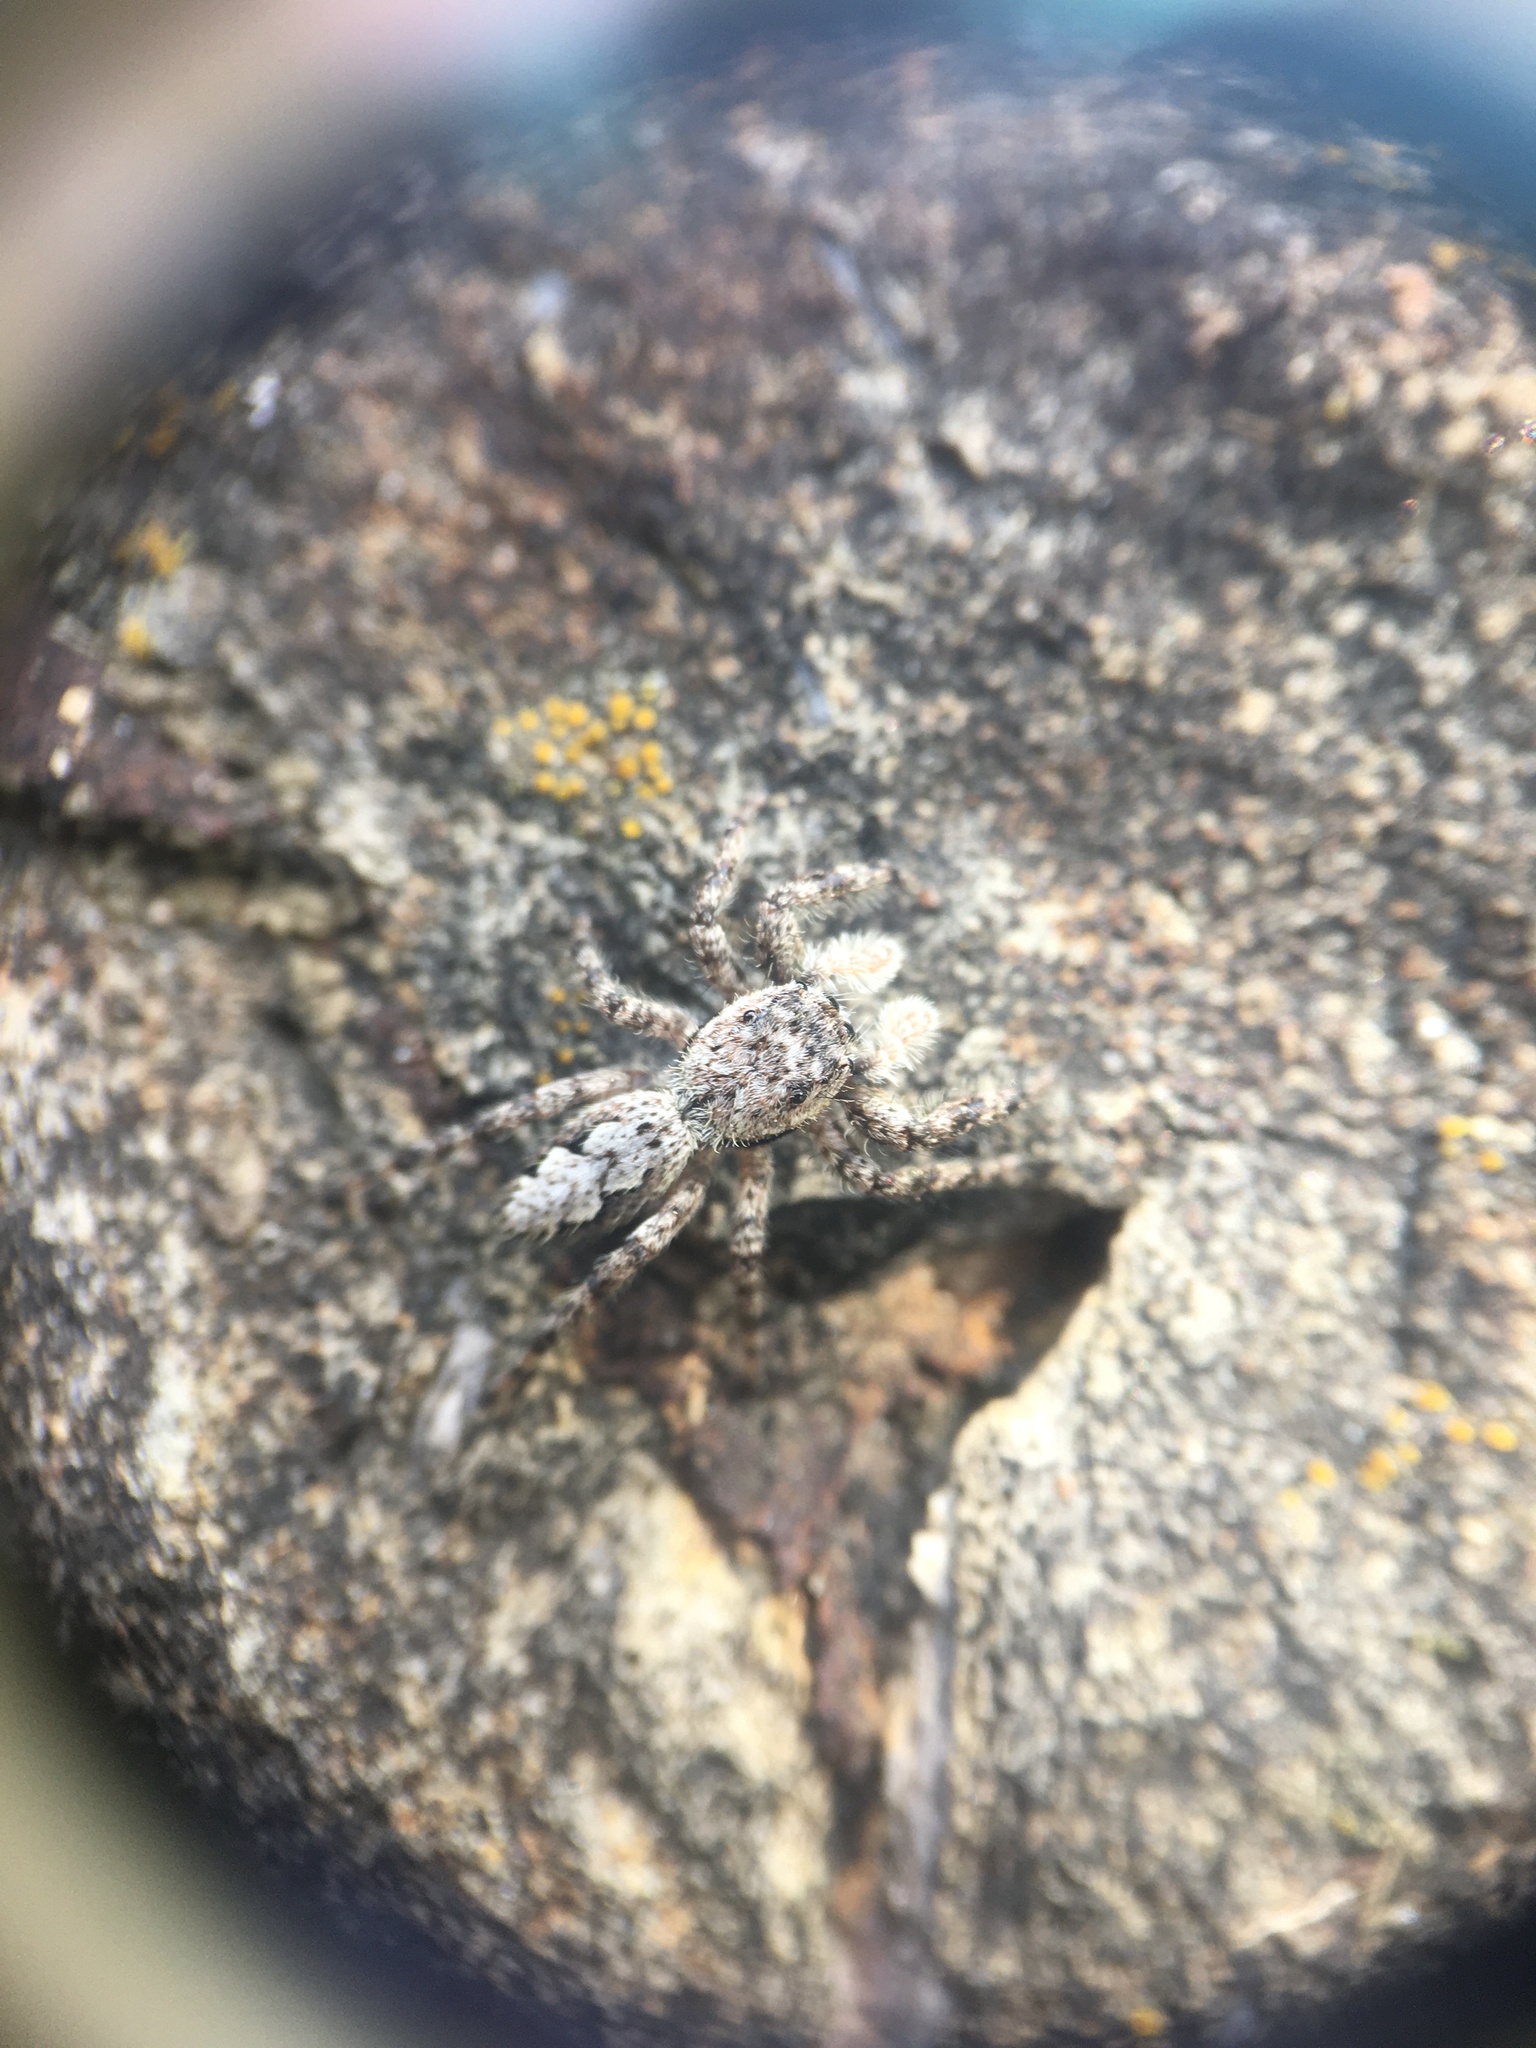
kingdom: Animalia
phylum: Arthropoda
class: Arachnida
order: Araneae
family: Salticidae
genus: Platycryptus
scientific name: Platycryptus undatus
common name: Tan jumping spider
